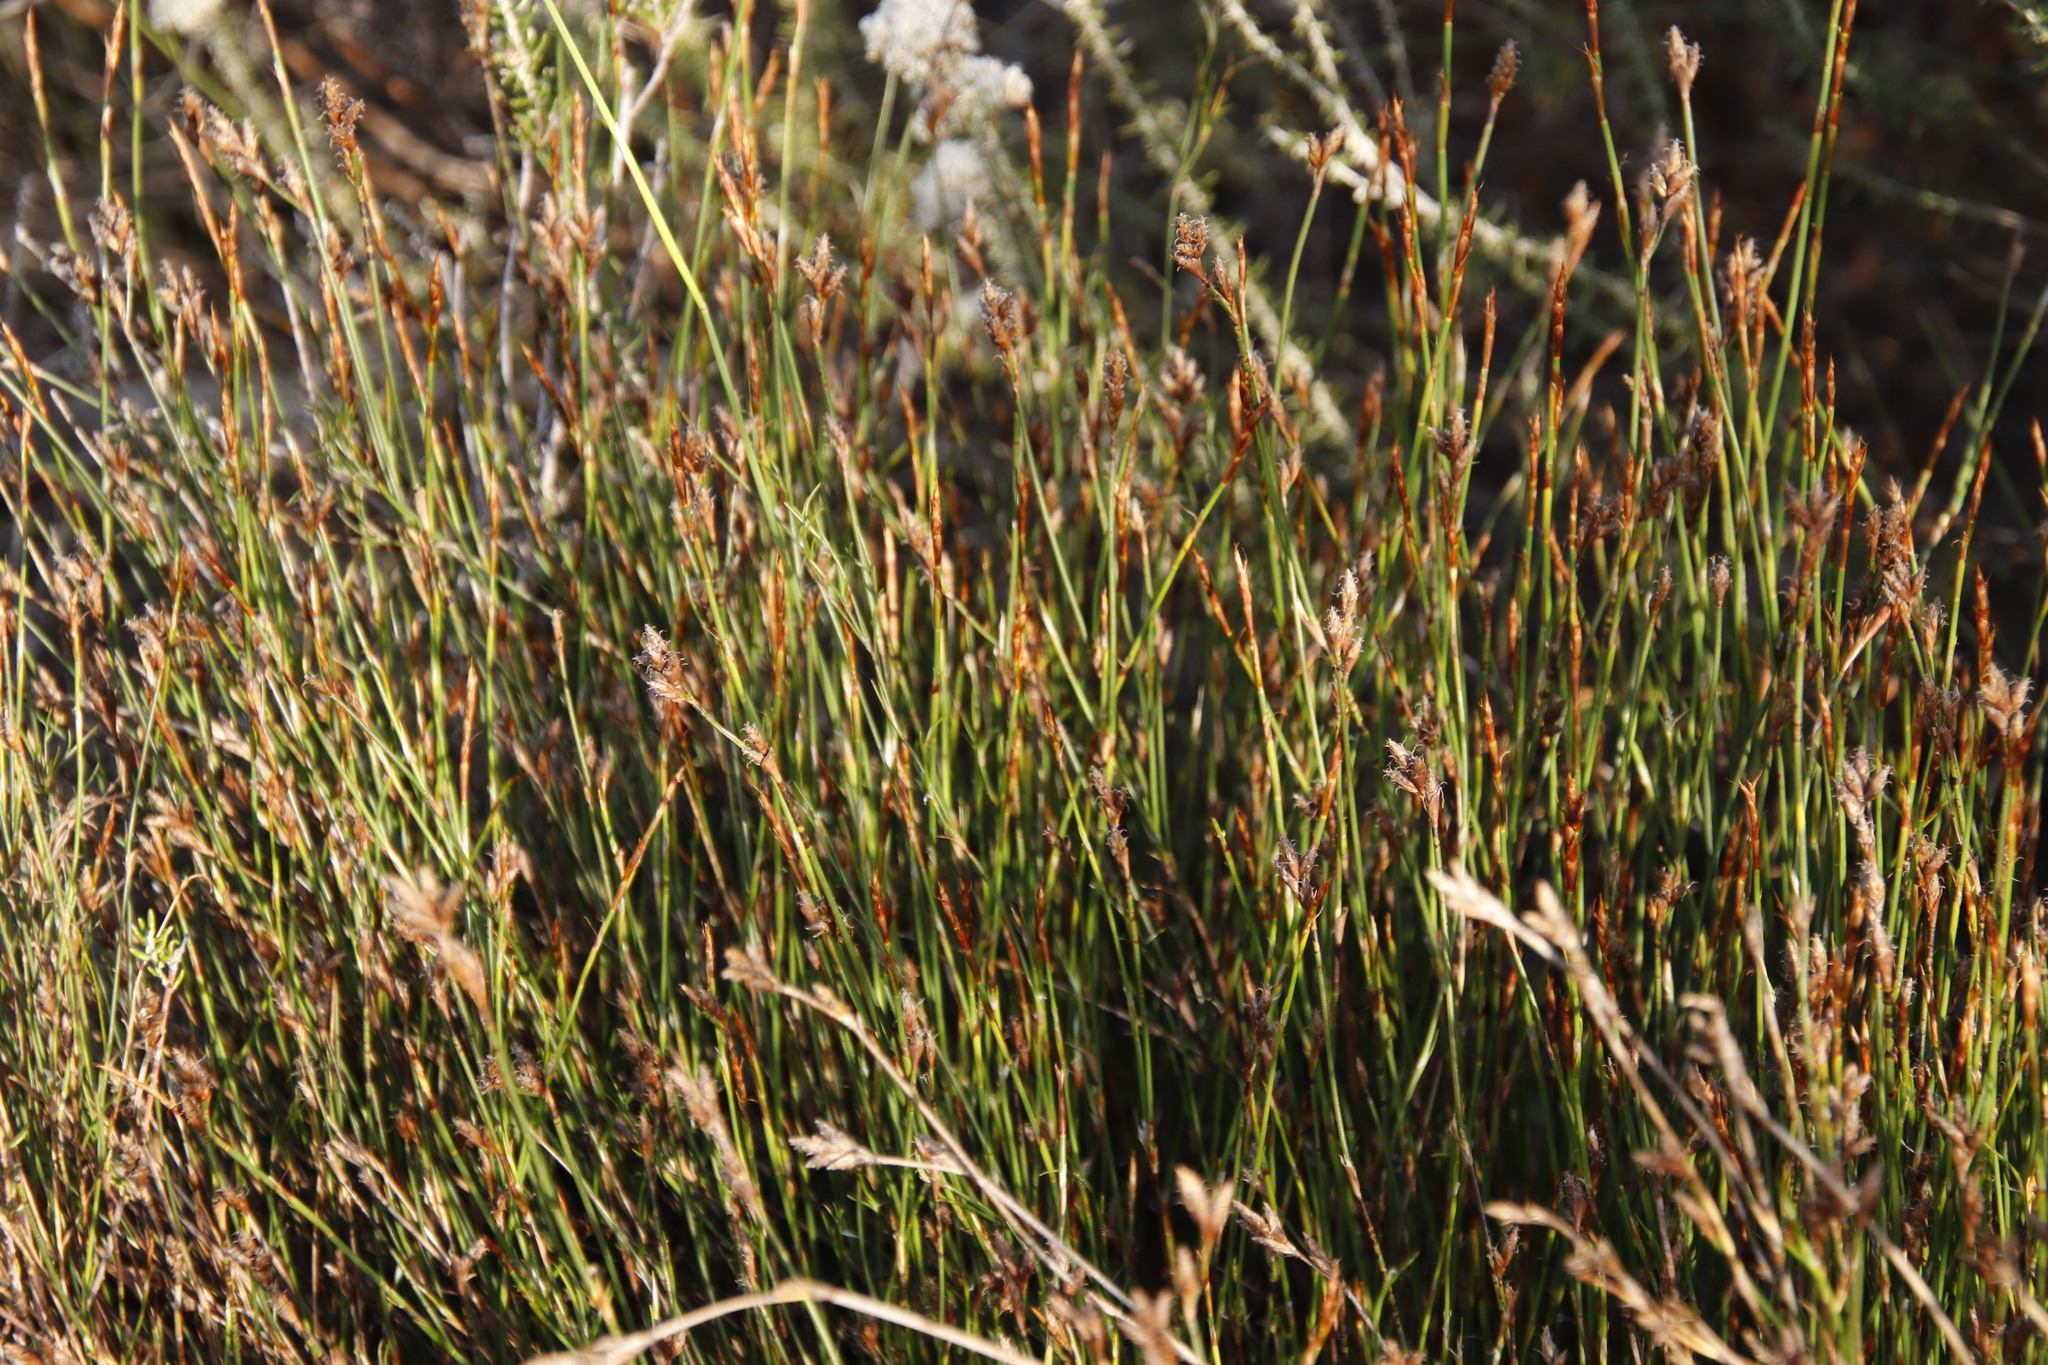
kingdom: Plantae
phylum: Tracheophyta
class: Liliopsida
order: Poales
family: Restionaceae
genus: Restio
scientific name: Restio capensis
